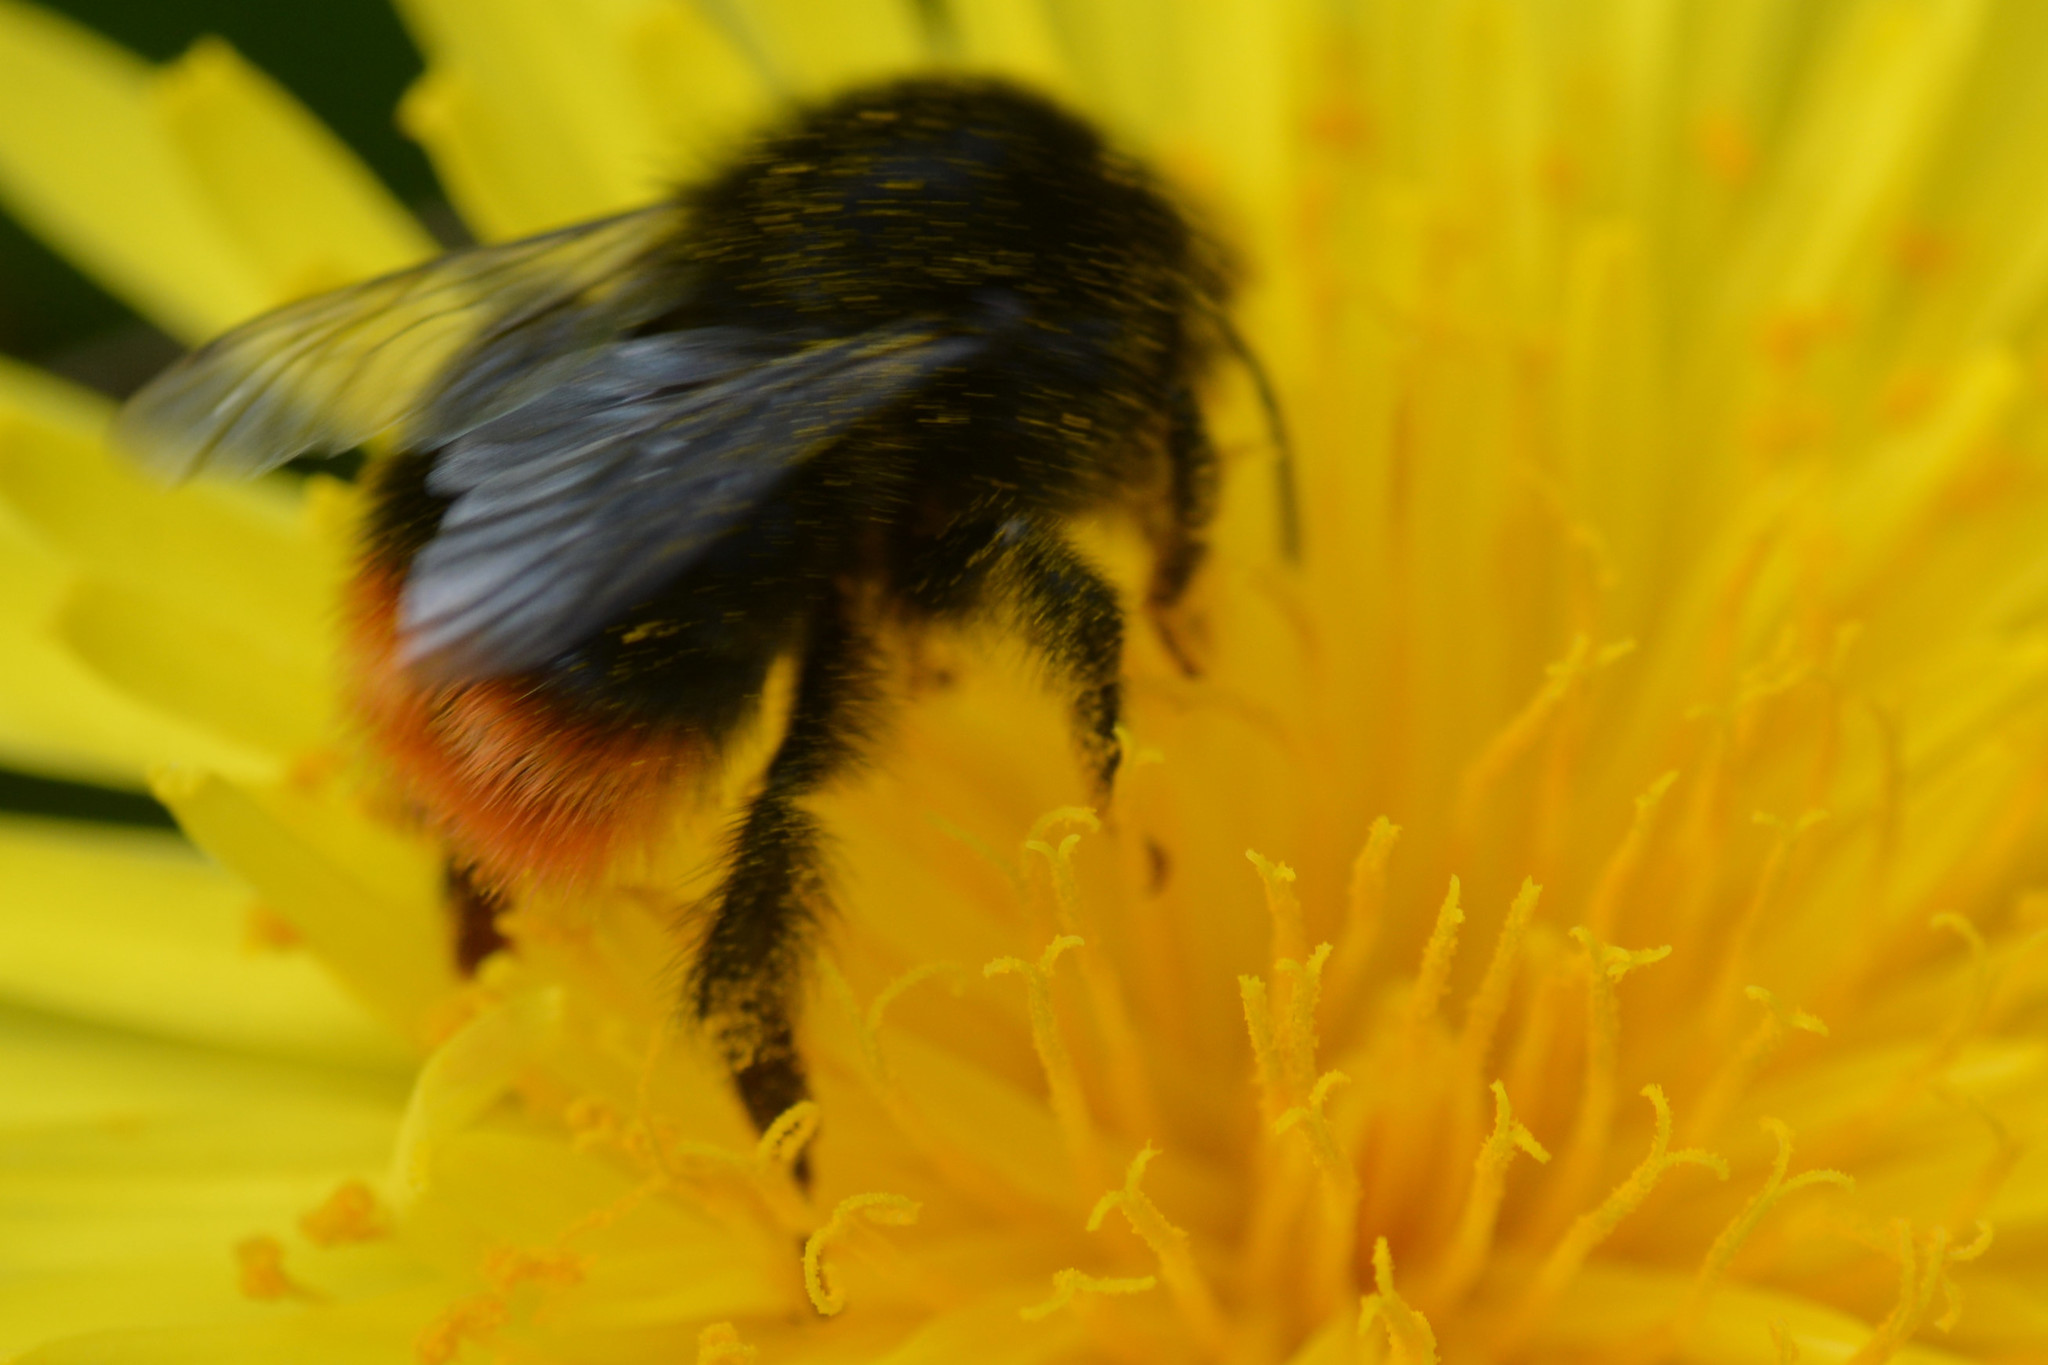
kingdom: Animalia
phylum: Arthropoda
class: Insecta
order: Hymenoptera
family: Apidae
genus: Bombus
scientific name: Bombus lapidarius
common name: Large red-tailed humble-bee
